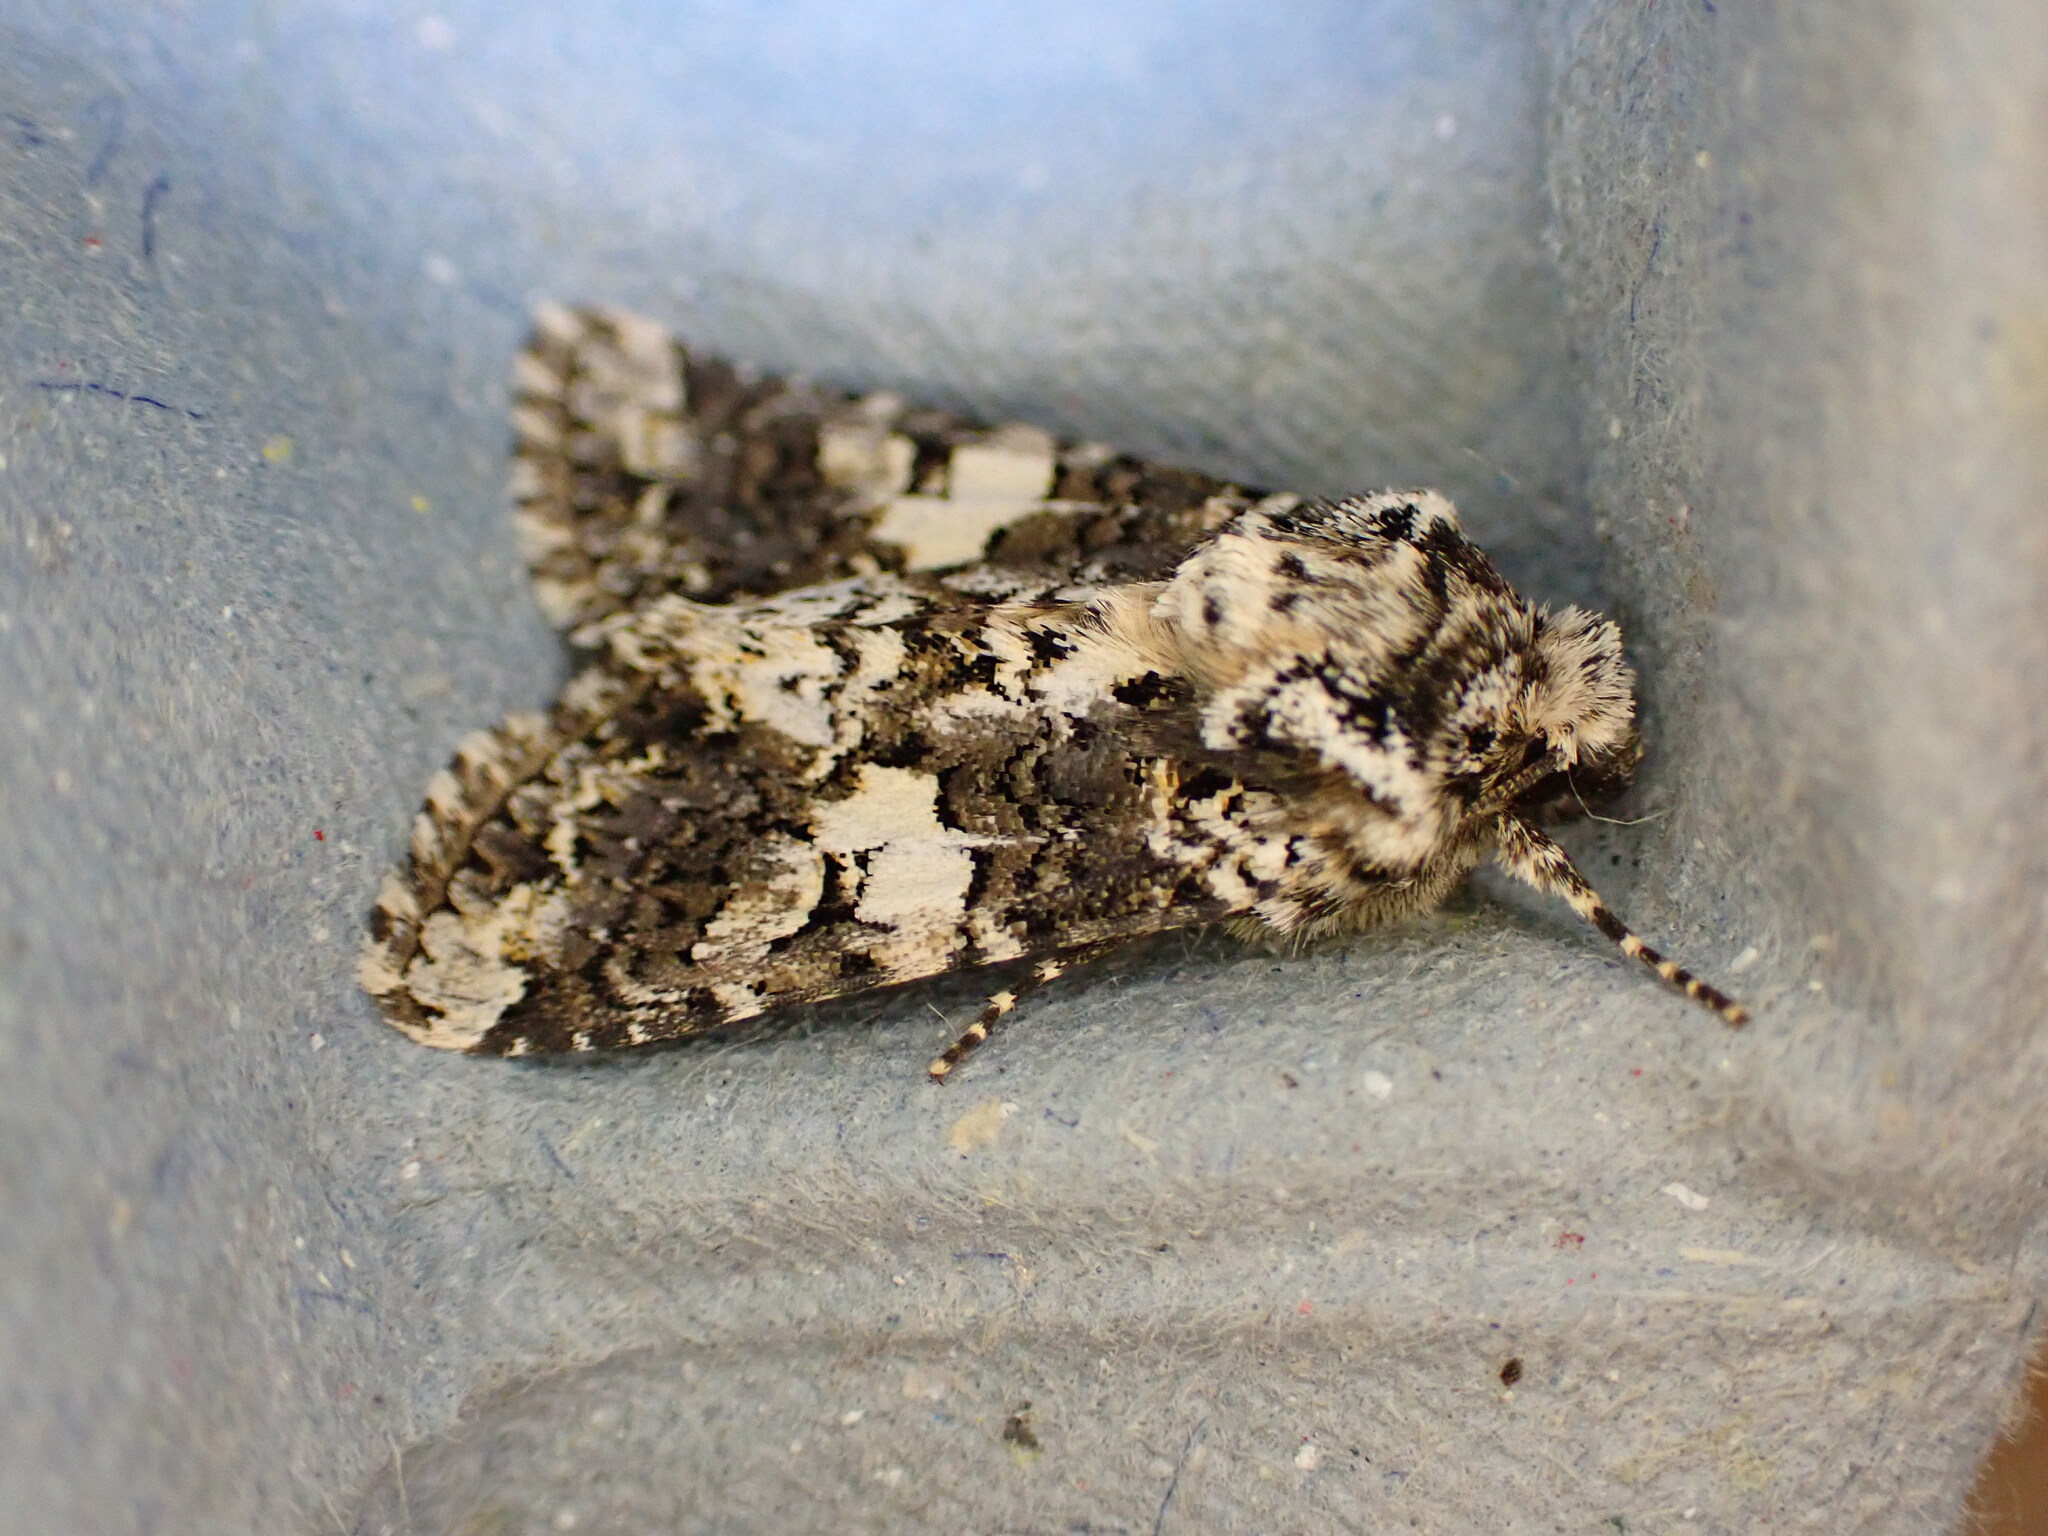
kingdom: Animalia
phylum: Arthropoda
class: Insecta
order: Lepidoptera
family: Noctuidae
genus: Hadena
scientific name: Hadena confusa
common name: Marbled coronet
